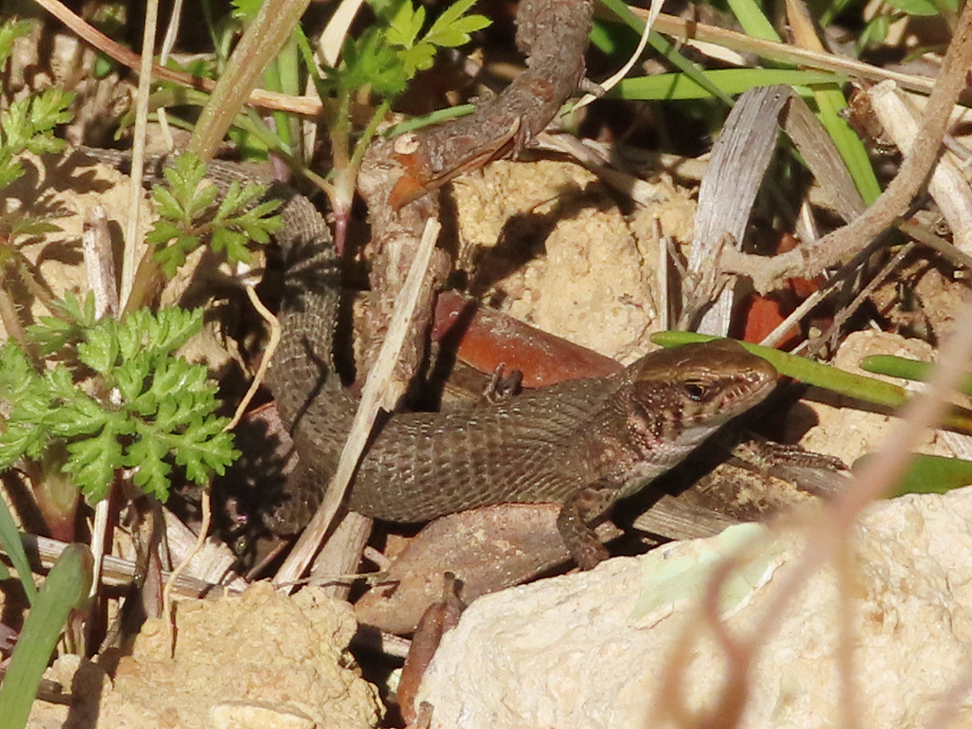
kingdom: Animalia
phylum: Chordata
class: Squamata
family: Lacertidae
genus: Algyroides
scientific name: Algyroides moreoticus
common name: Greek algyroides
